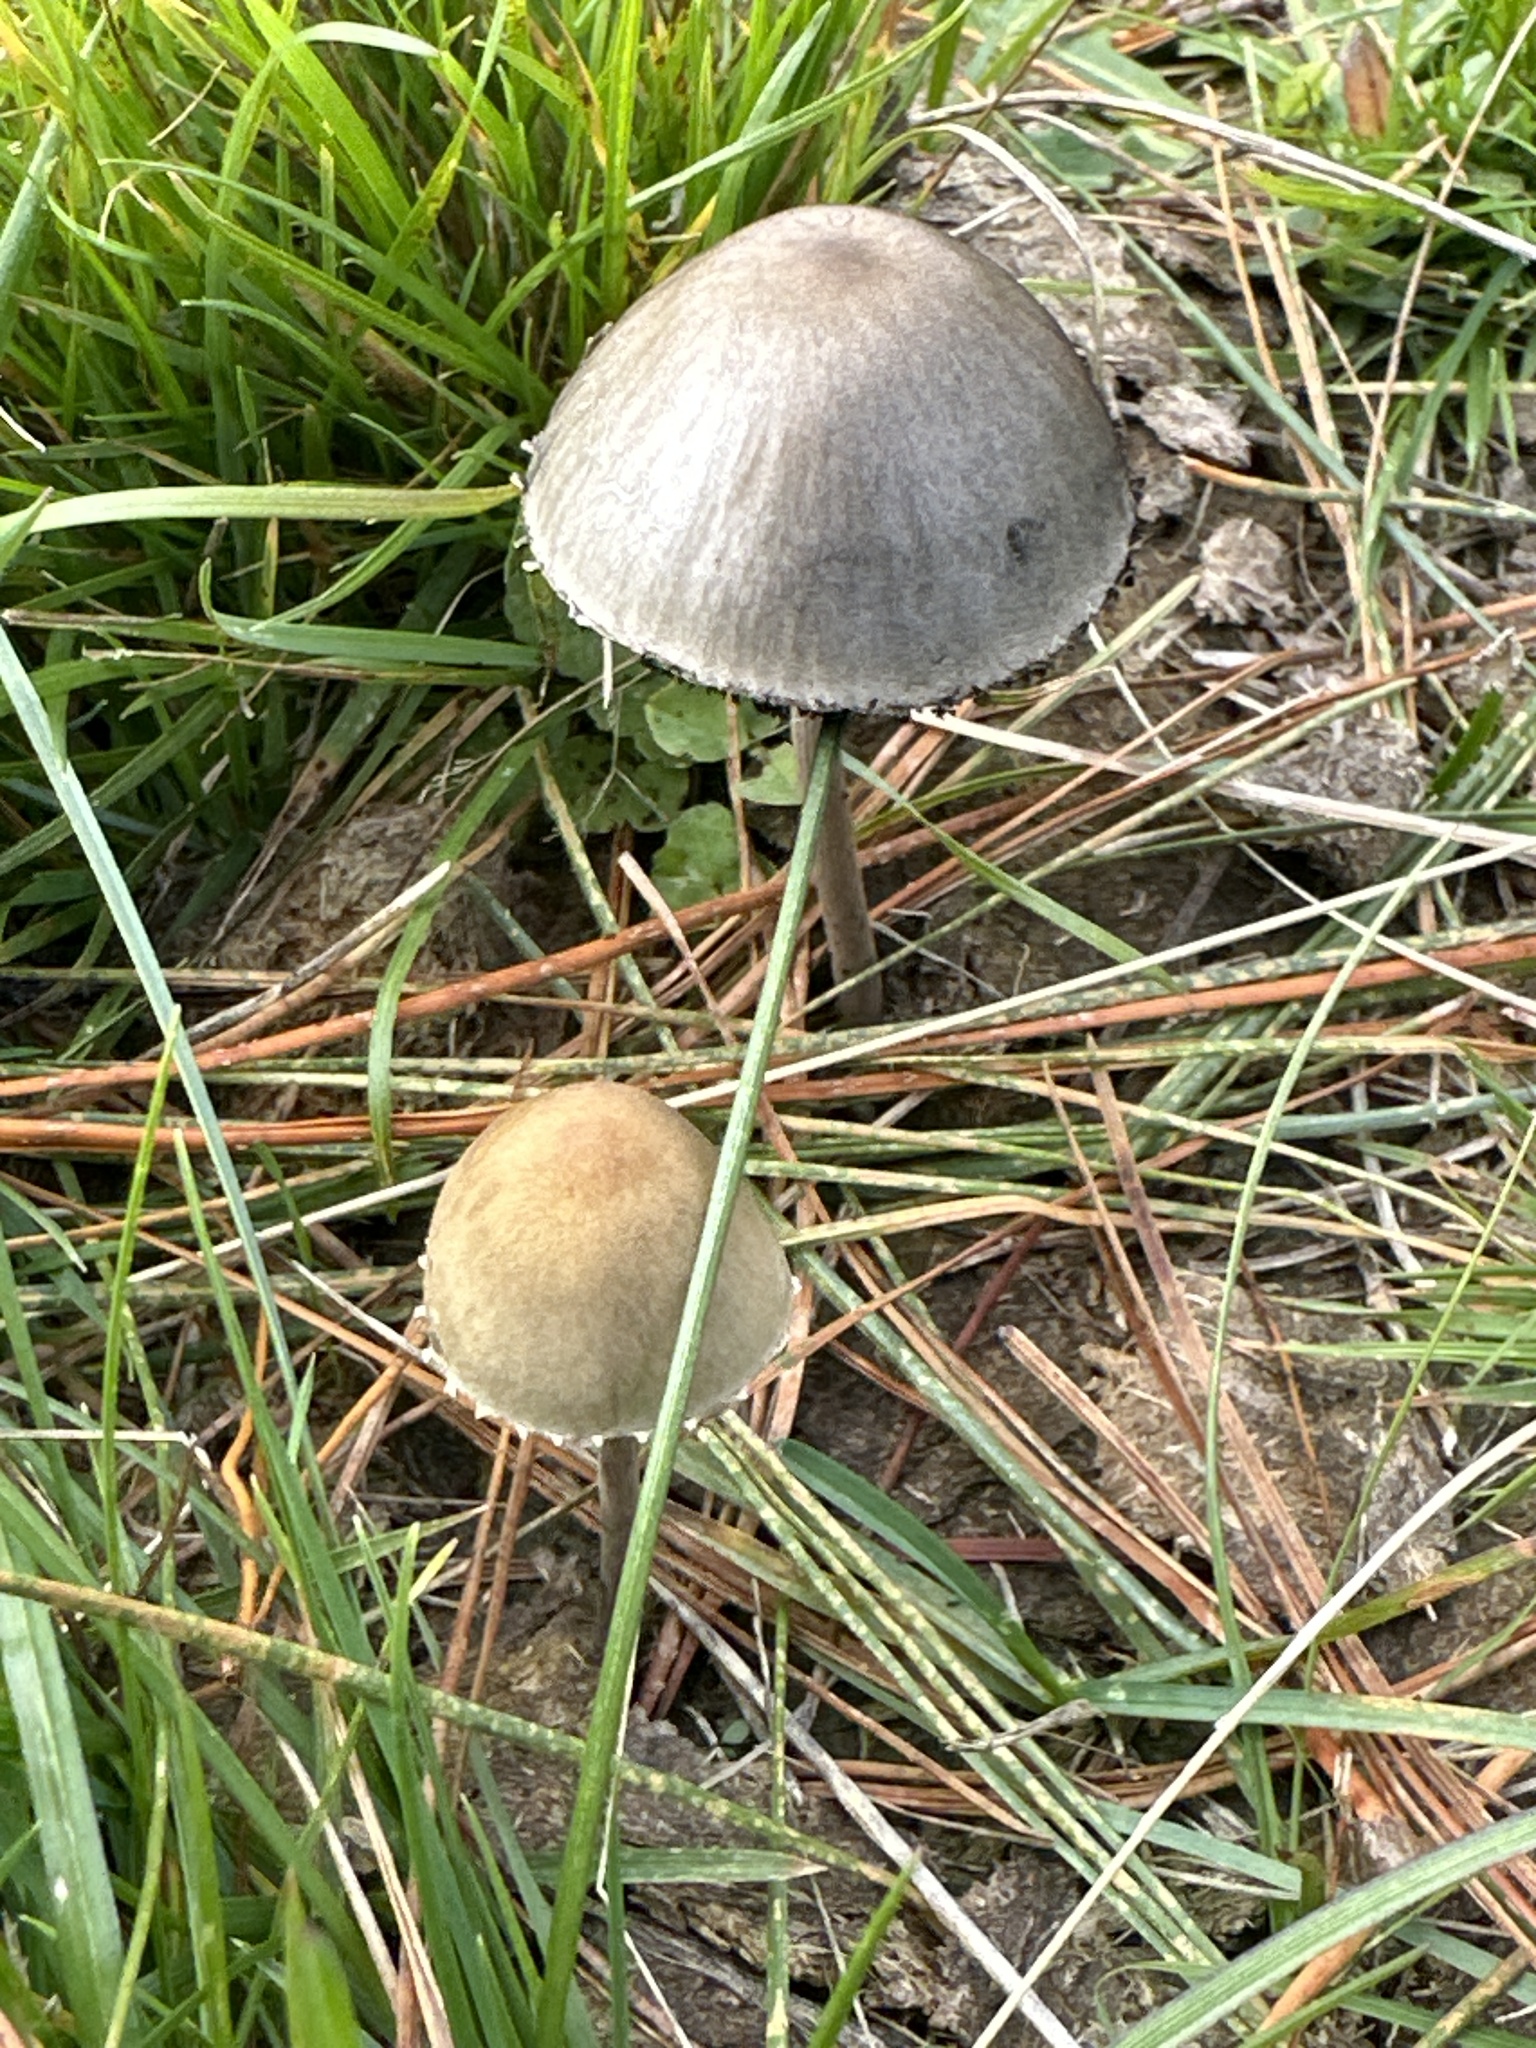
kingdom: Fungi
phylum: Basidiomycota
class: Agaricomycetes
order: Agaricales
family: Bolbitiaceae
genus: Panaeolus
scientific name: Panaeolus papilionaceus
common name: Petticoat mottlegill
